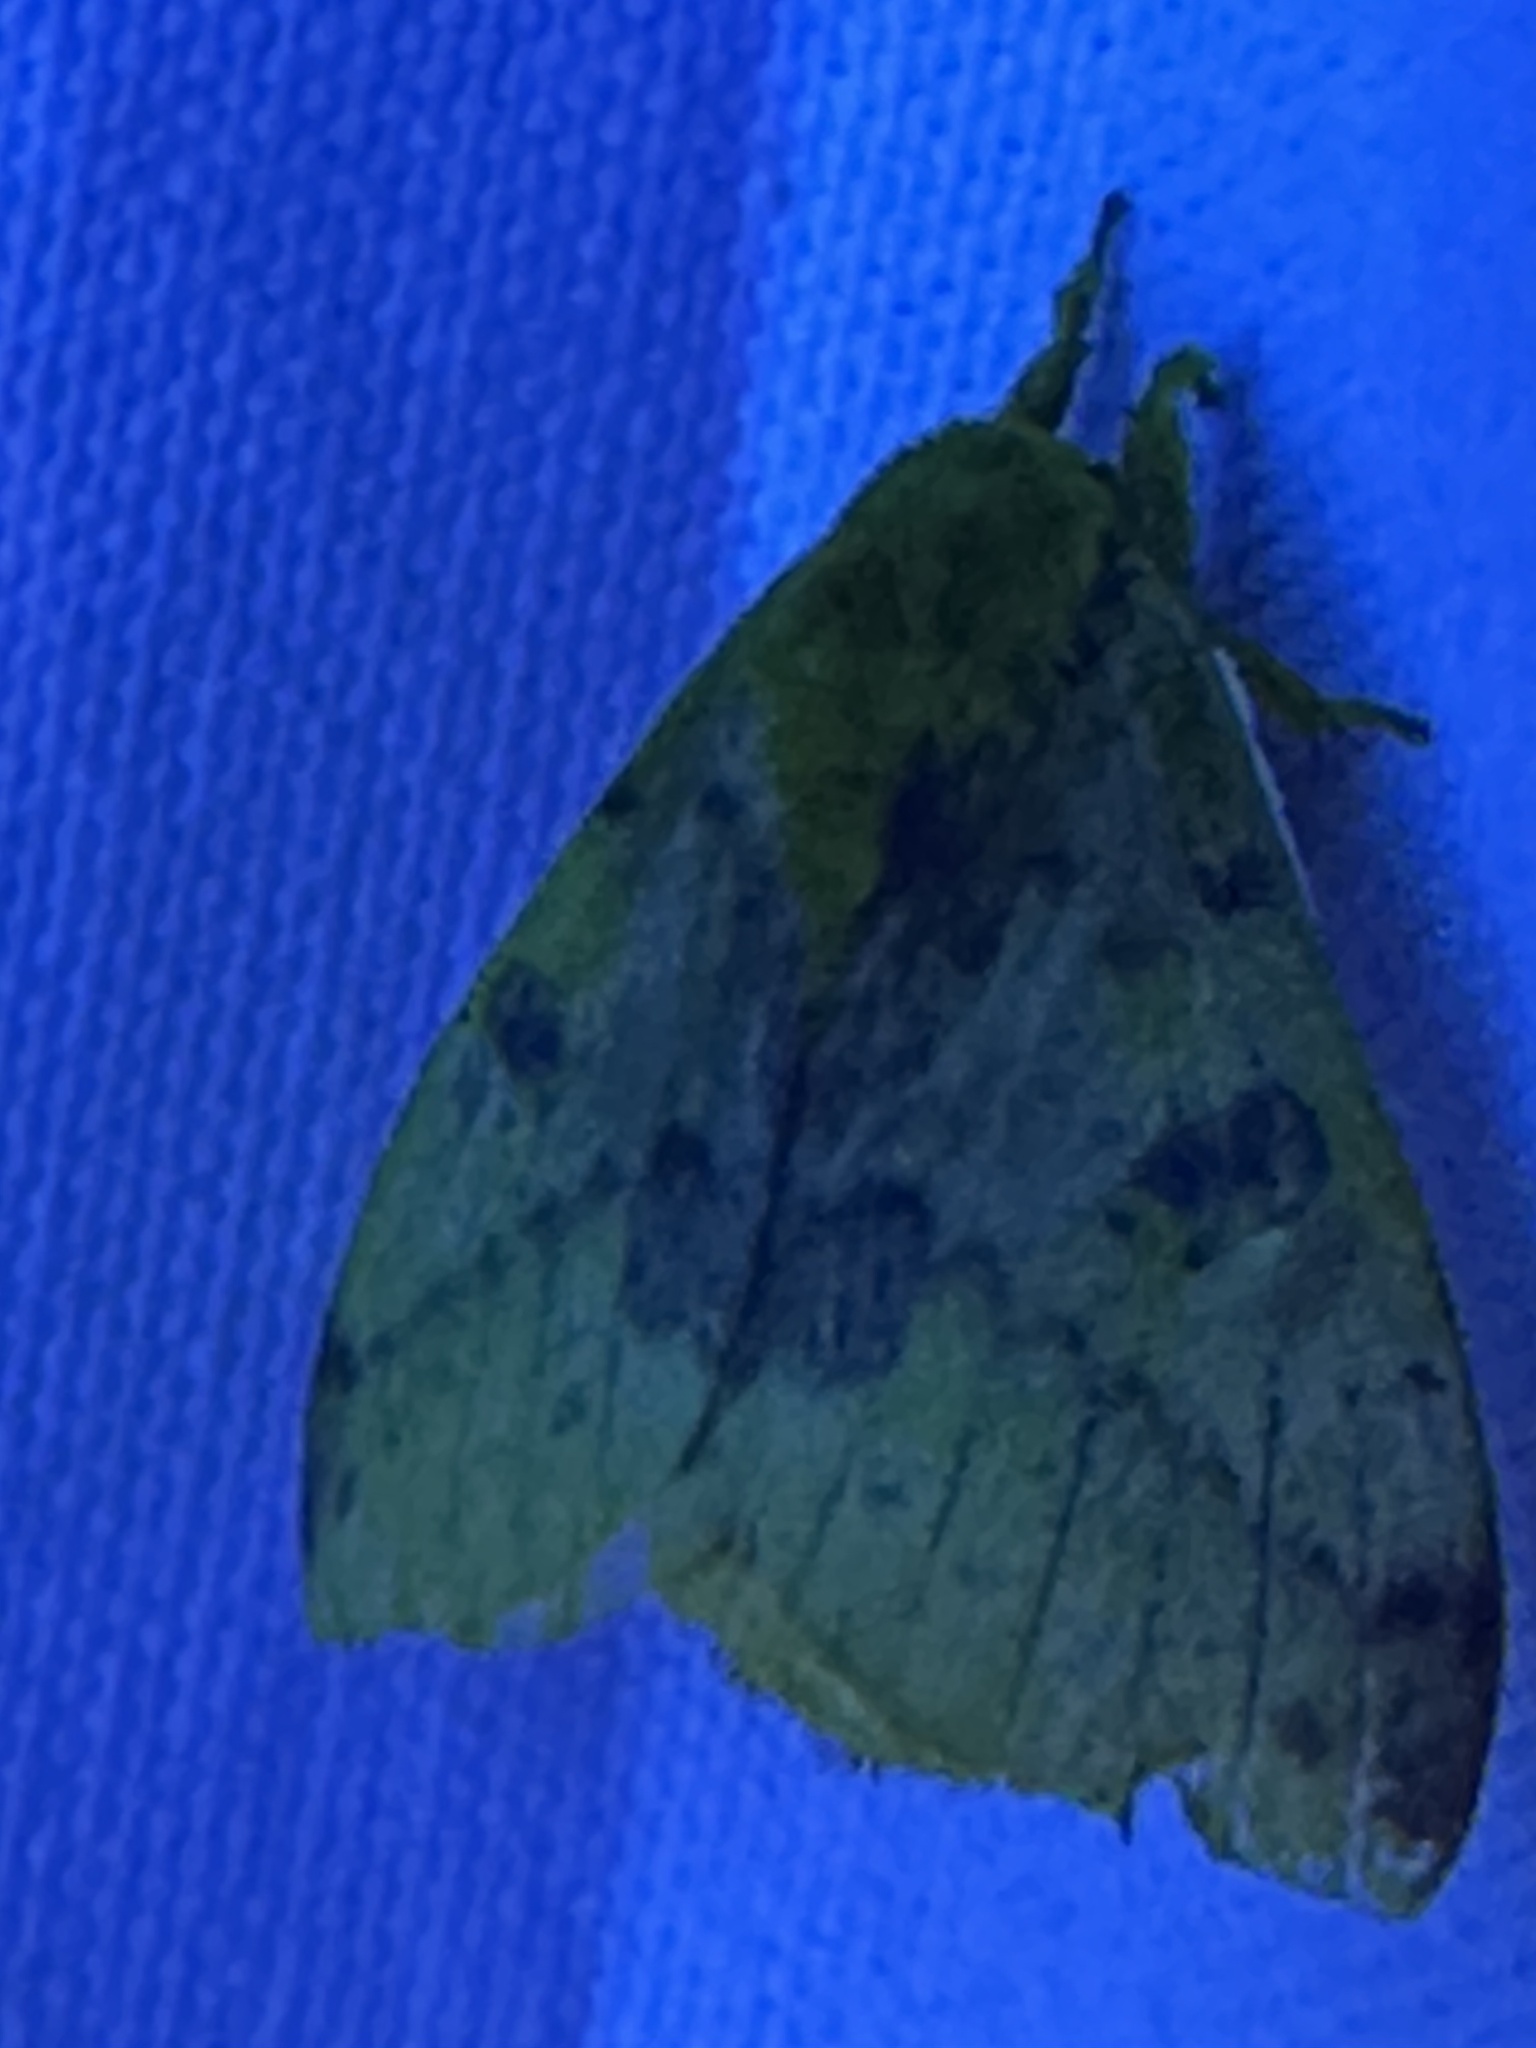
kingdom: Animalia
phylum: Arthropoda
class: Insecta
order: Lepidoptera
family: Saturniidae
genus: Automeris
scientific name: Automeris io
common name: Io moth
